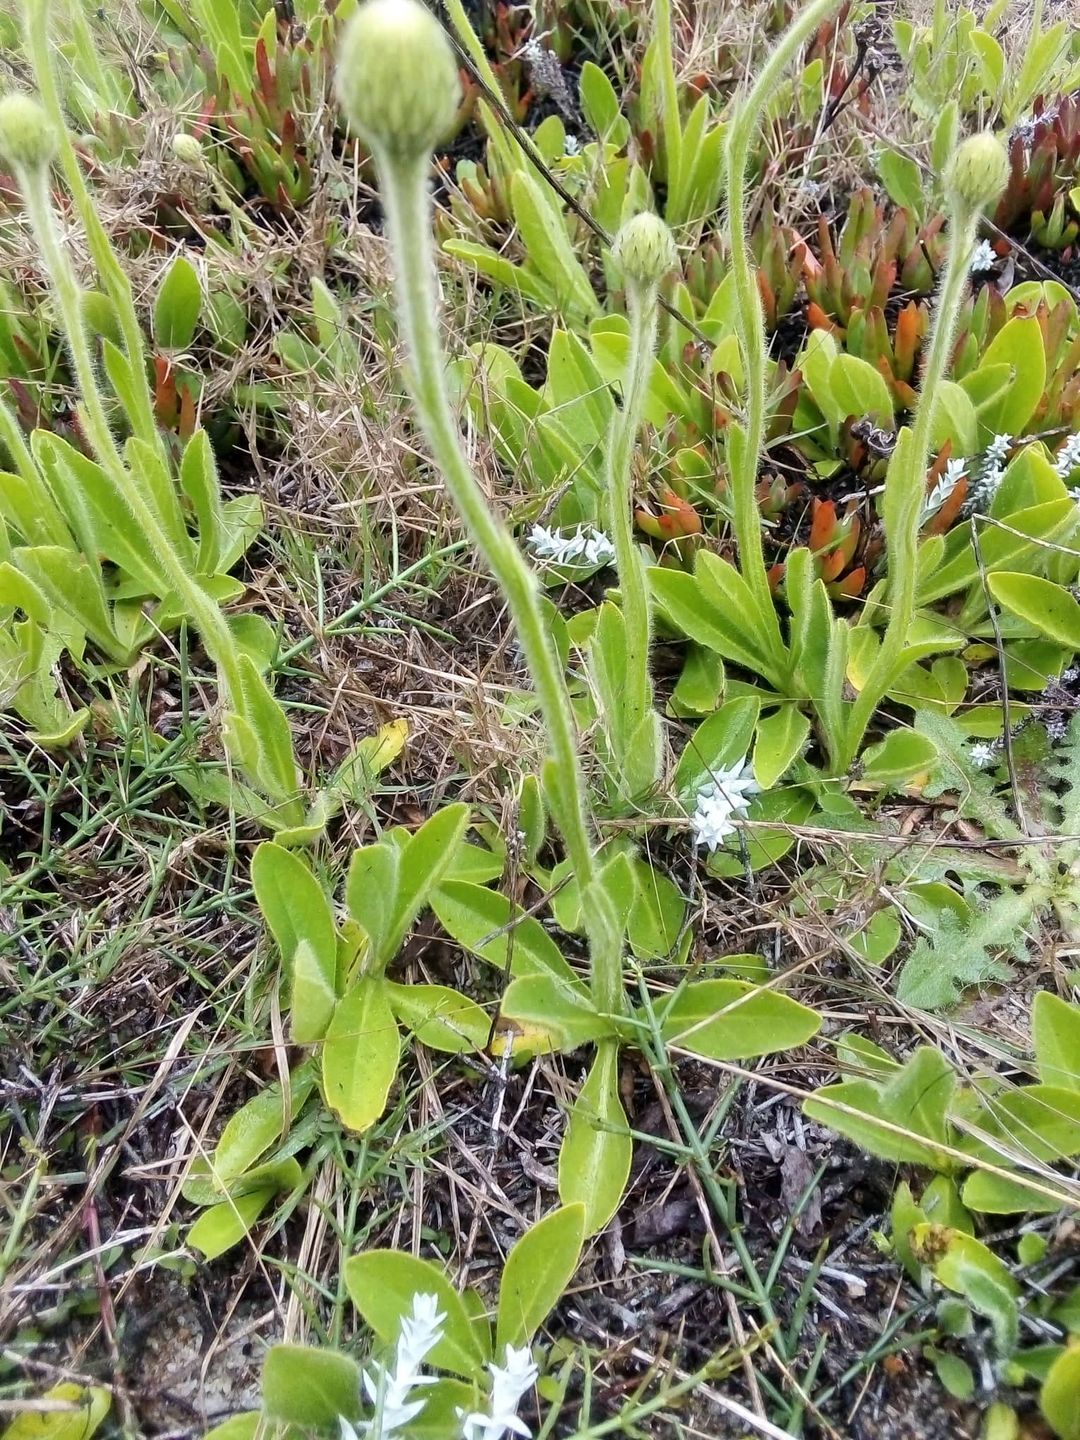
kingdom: Plantae
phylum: Tracheophyta
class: Magnoliopsida
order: Asterales
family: Asteraceae
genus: Stenachaenium
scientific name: Stenachaenium megapotamicum
